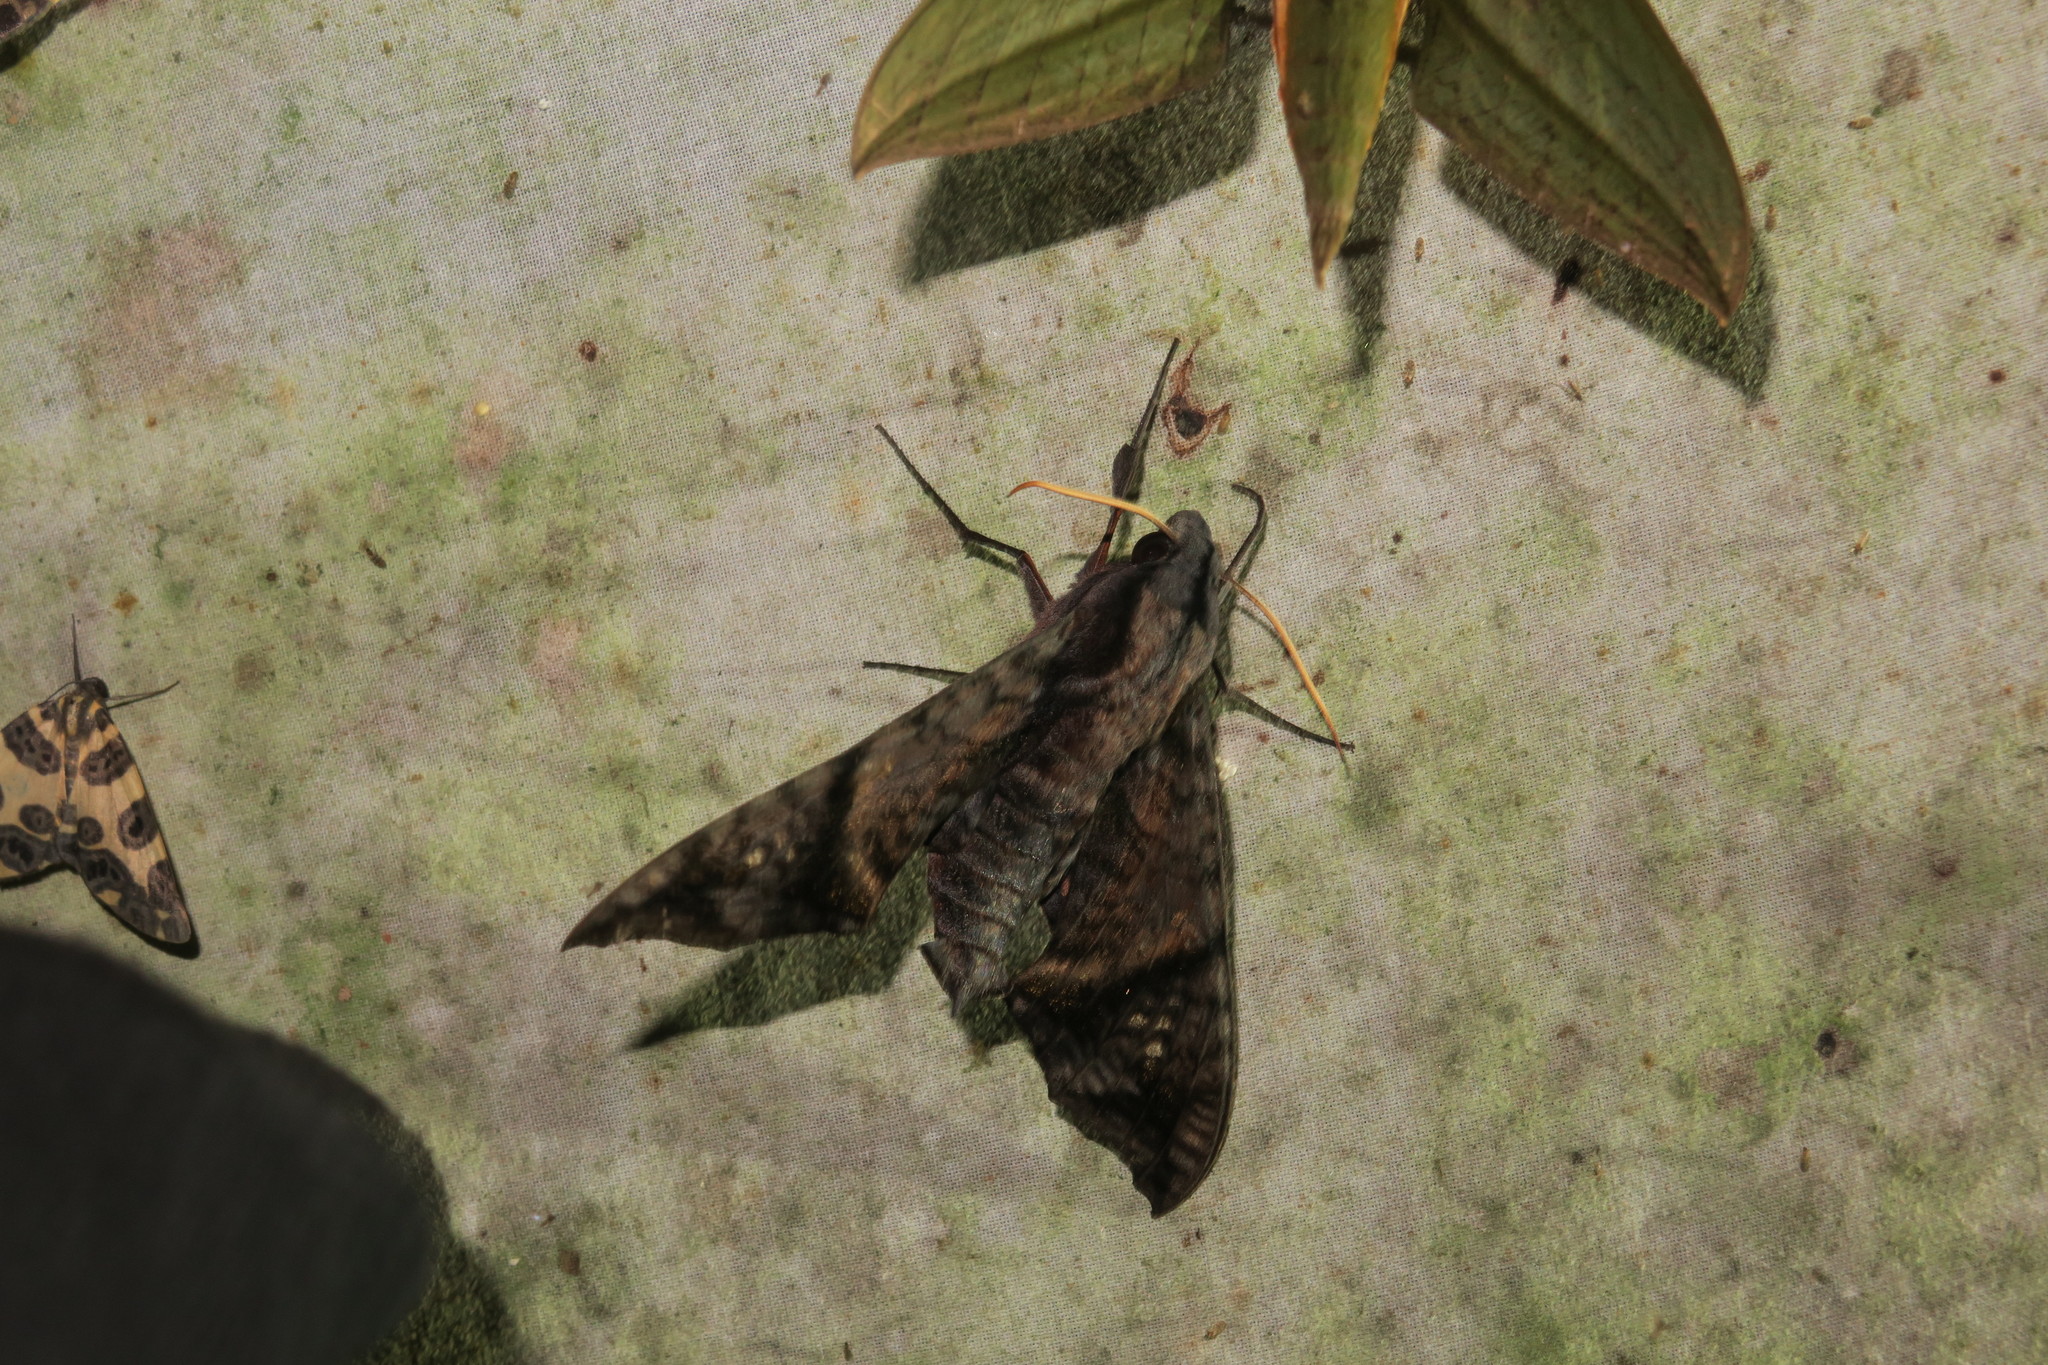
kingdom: Animalia
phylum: Arthropoda
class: Insecta
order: Lepidoptera
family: Sphingidae
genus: Nyceryx
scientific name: Nyceryx hyposticta
